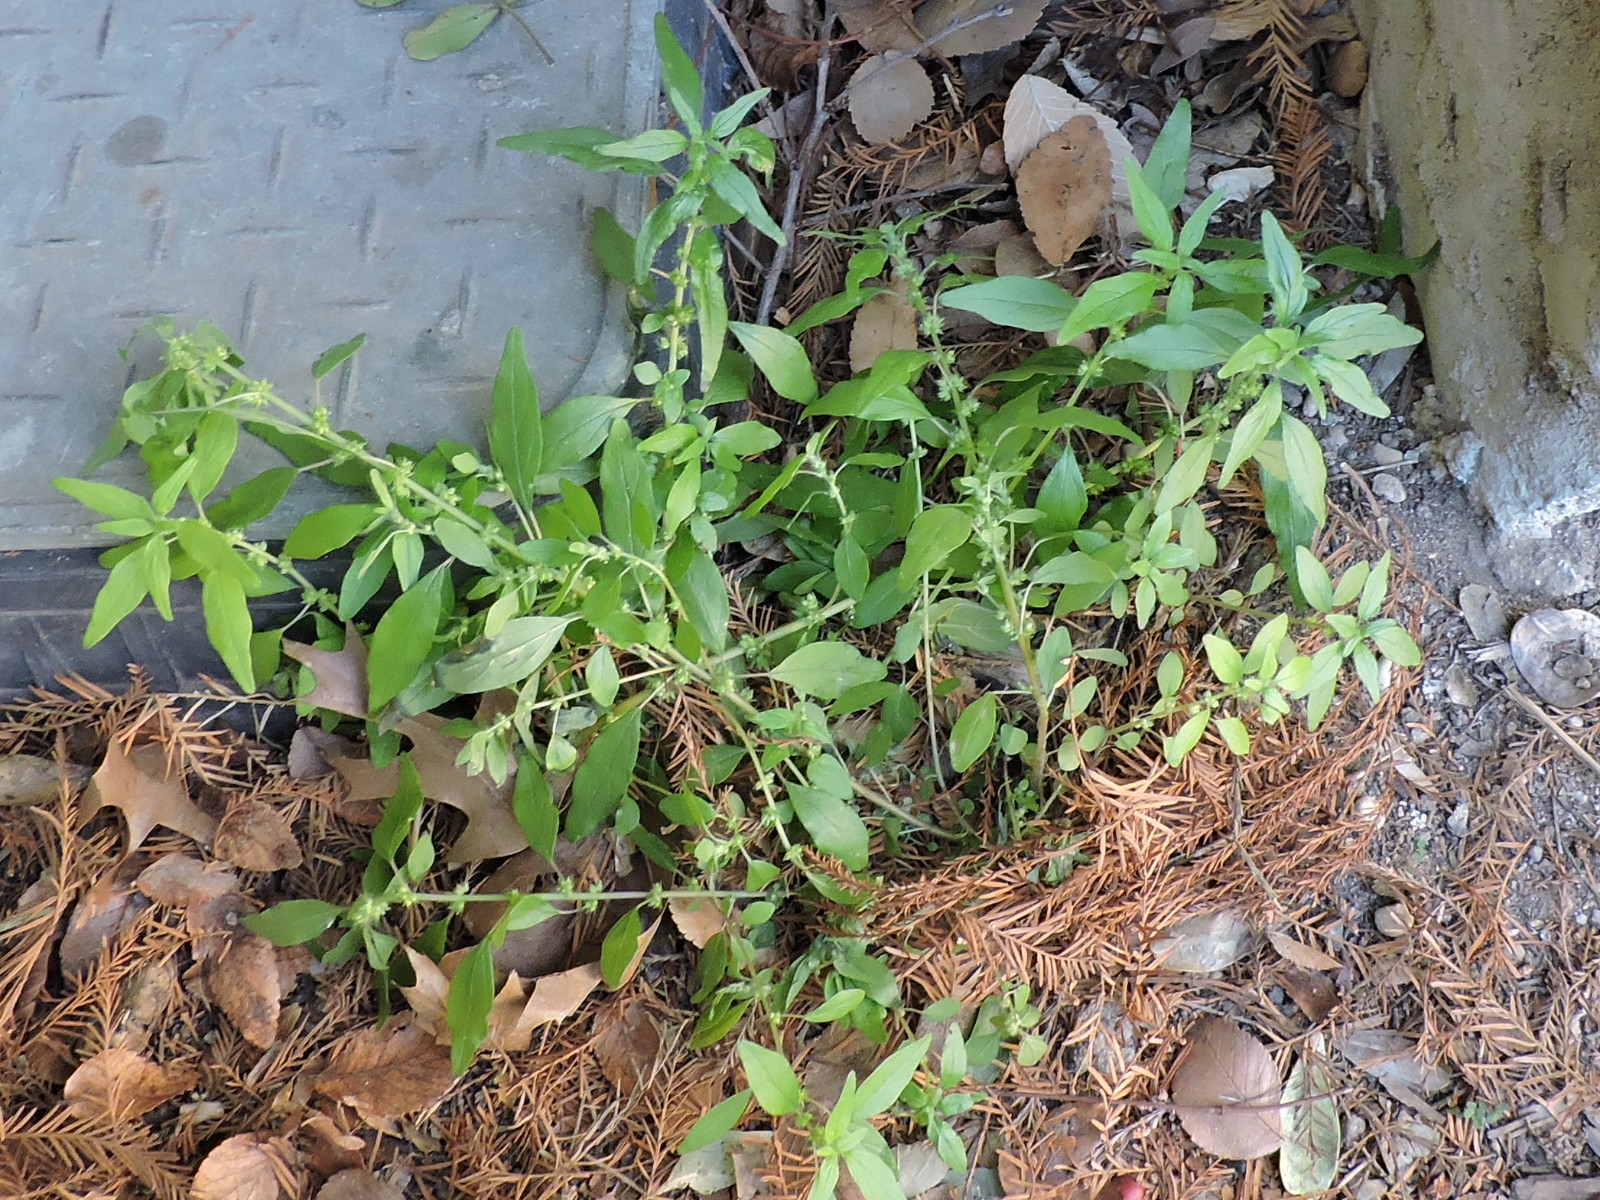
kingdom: Plantae
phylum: Tracheophyta
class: Magnoliopsida
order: Rosales
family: Urticaceae
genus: Parietaria
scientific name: Parietaria pensylvanica
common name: Pennsylvania pellitory
